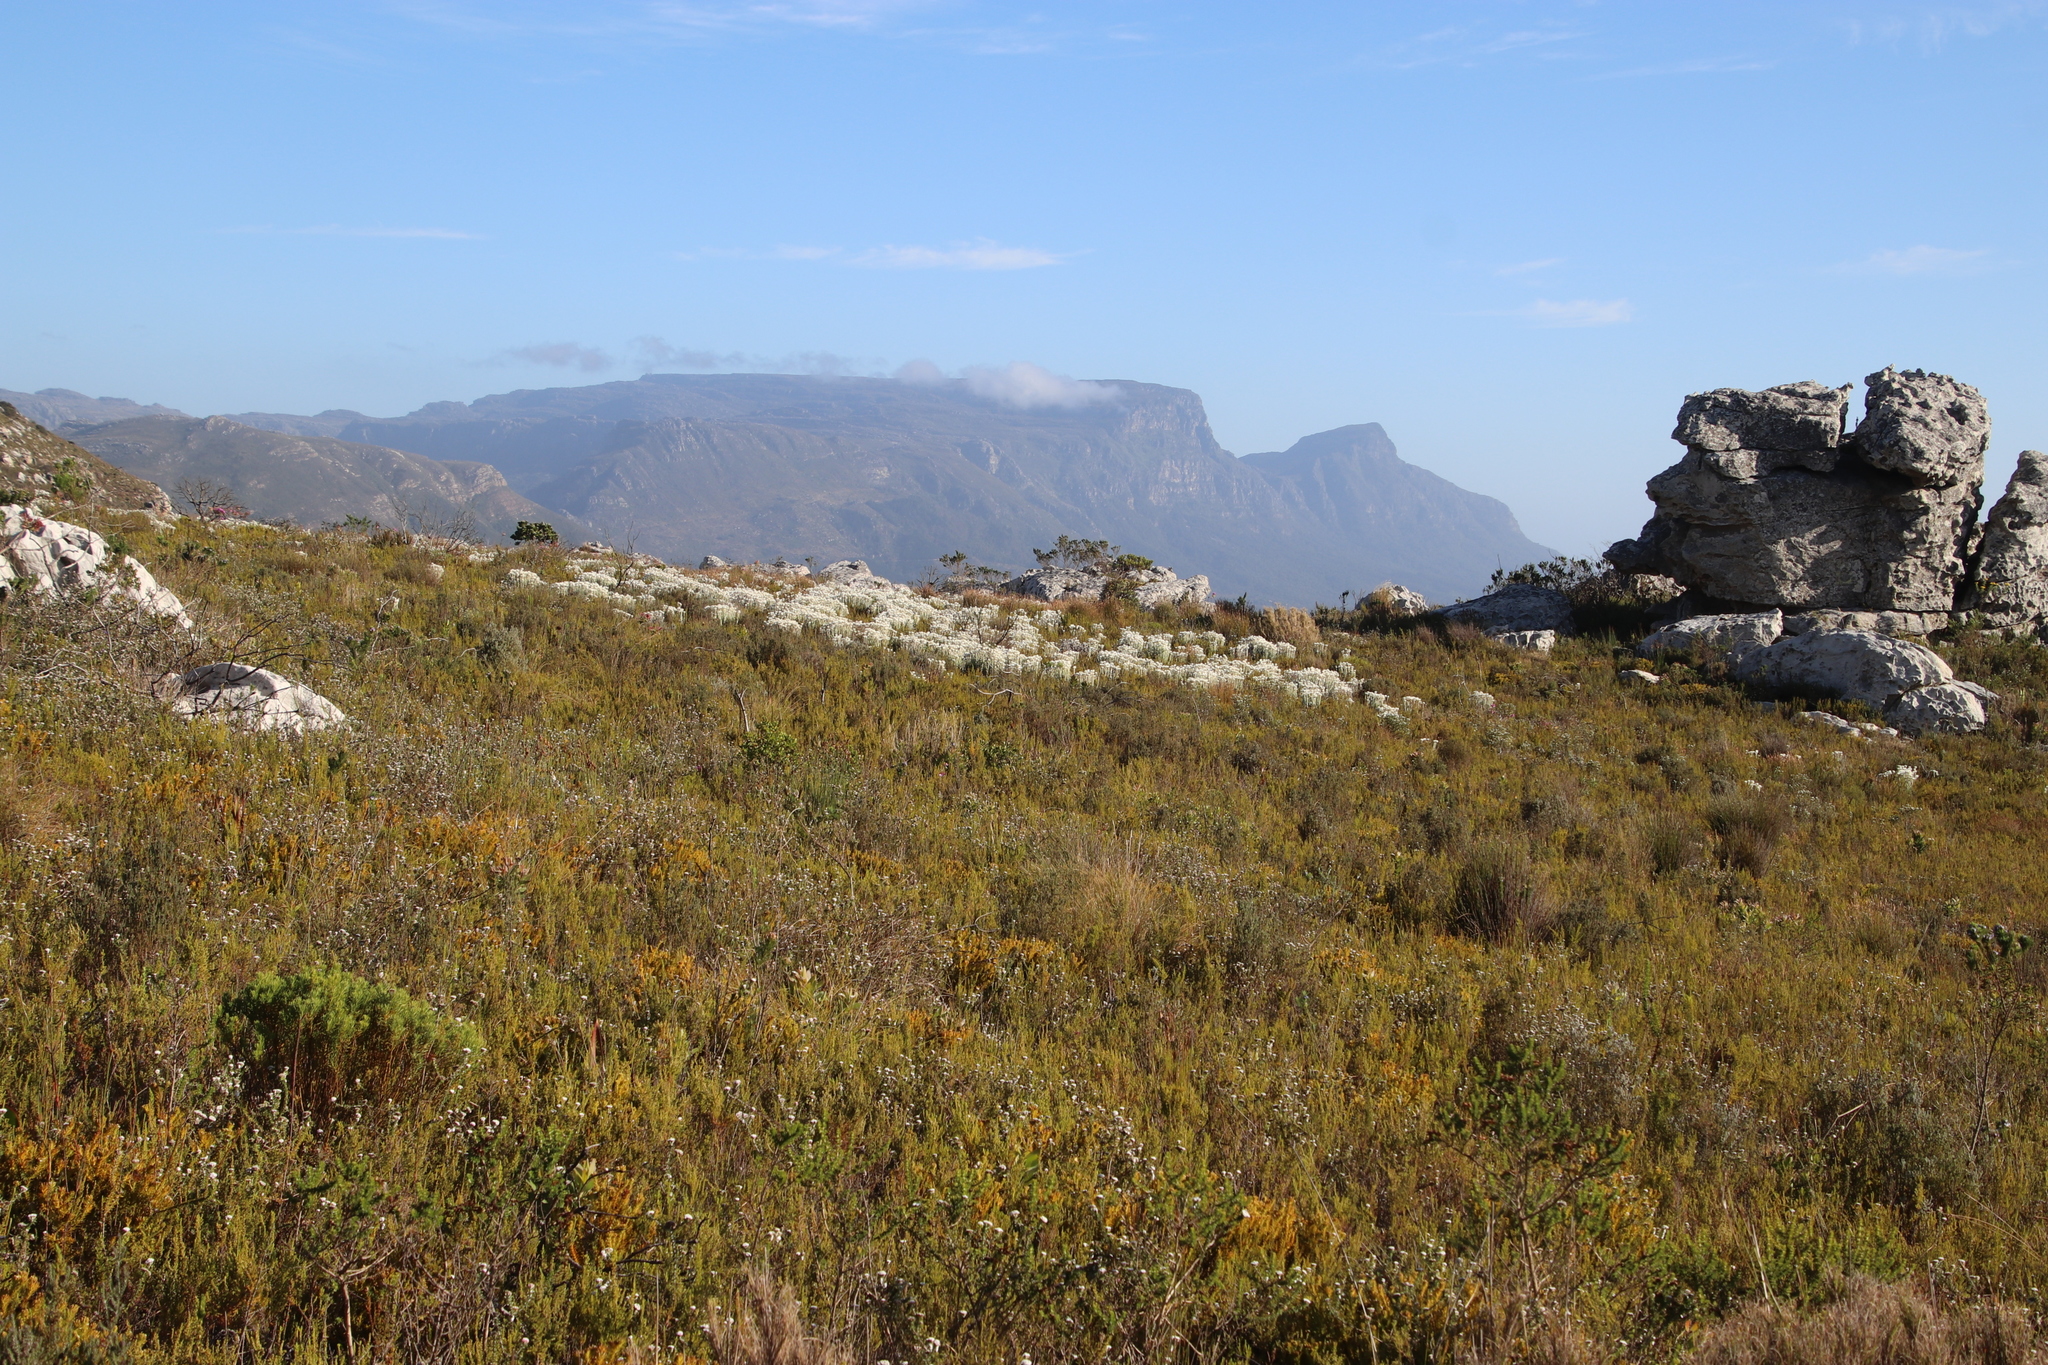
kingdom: Plantae
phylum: Tracheophyta
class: Magnoliopsida
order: Asterales
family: Asteraceae
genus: Syncarpha
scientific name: Syncarpha vestita
